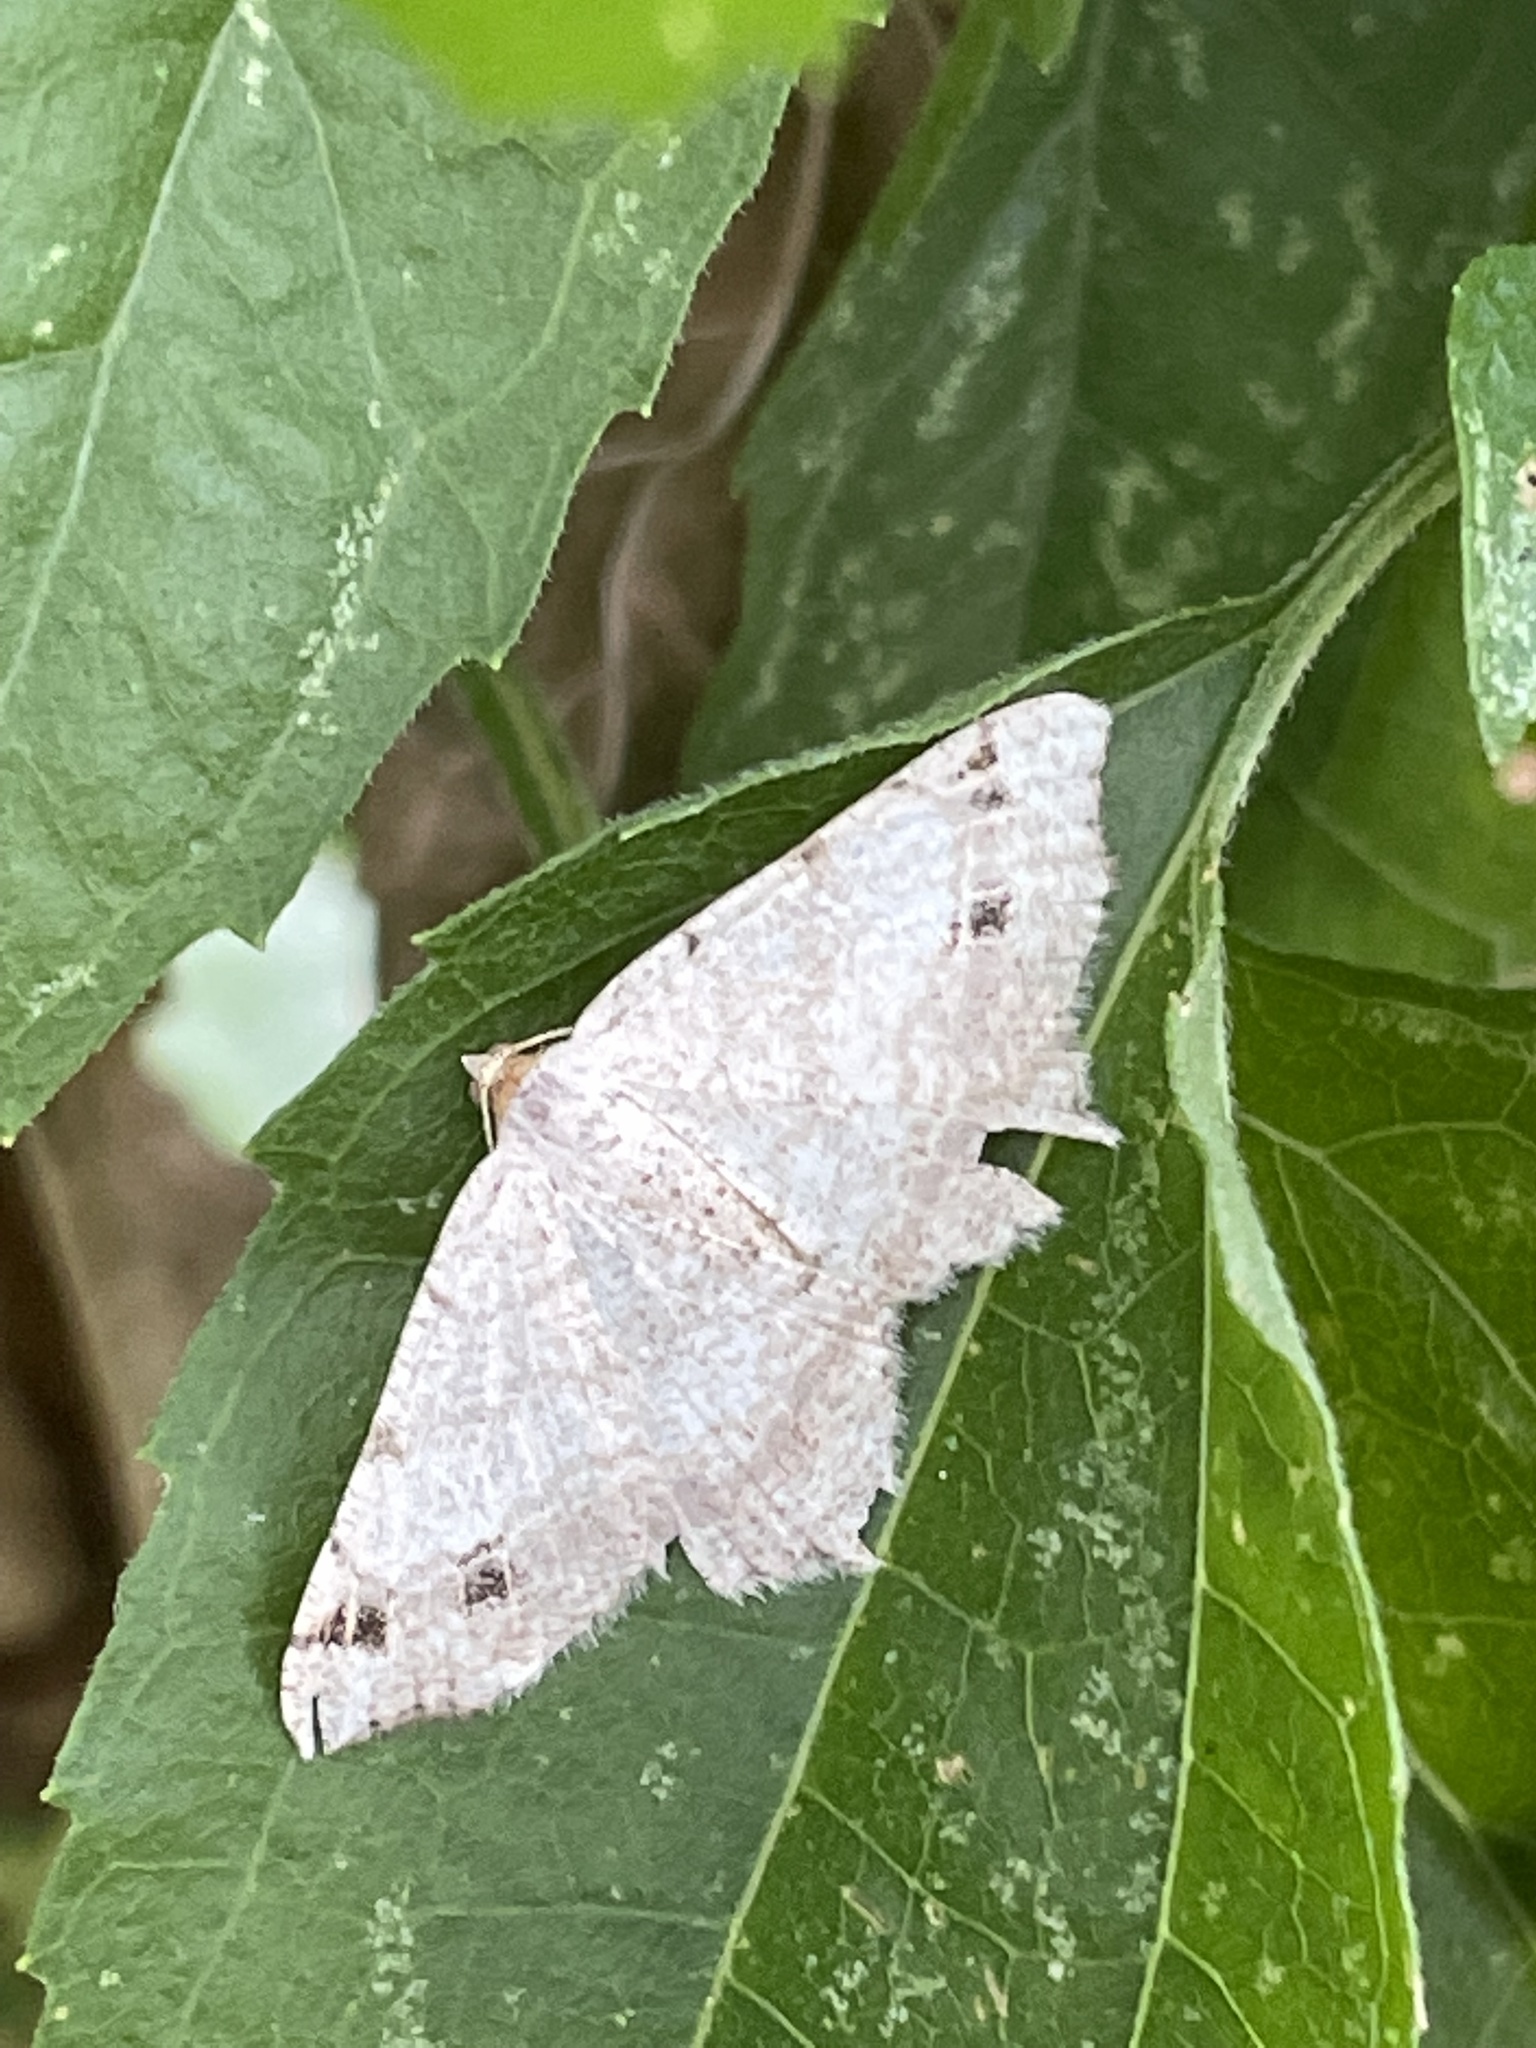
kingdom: Animalia
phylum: Arthropoda
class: Insecta
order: Lepidoptera
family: Geometridae
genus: Macaria
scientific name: Macaria
